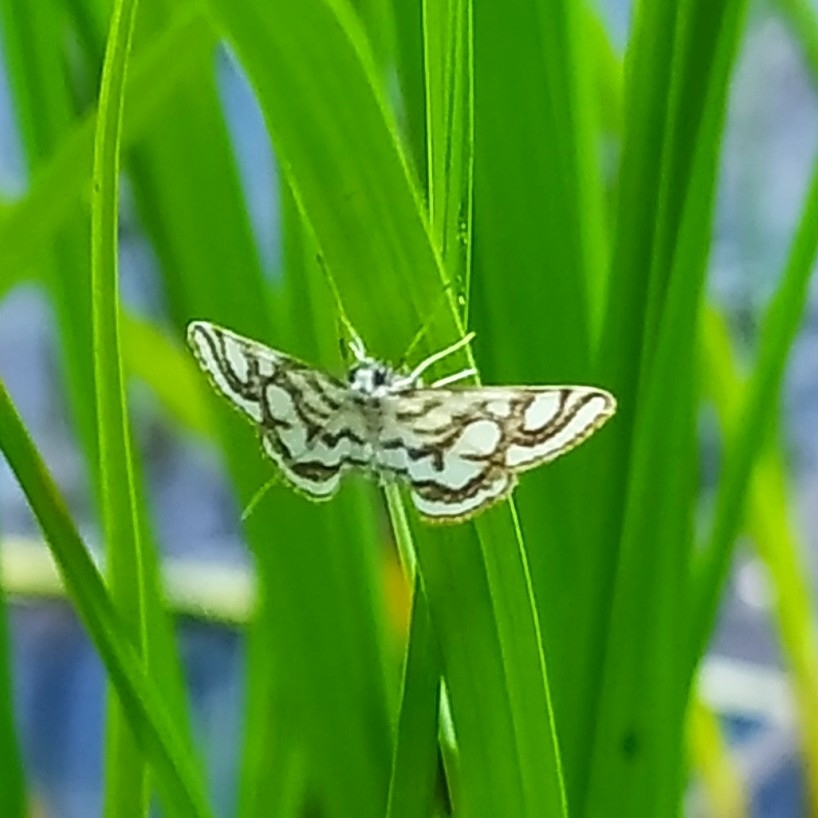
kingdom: Animalia
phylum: Arthropoda
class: Insecta
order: Lepidoptera
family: Crambidae
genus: Nymphula
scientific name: Nymphula nitidulata
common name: Beautiful china mark
